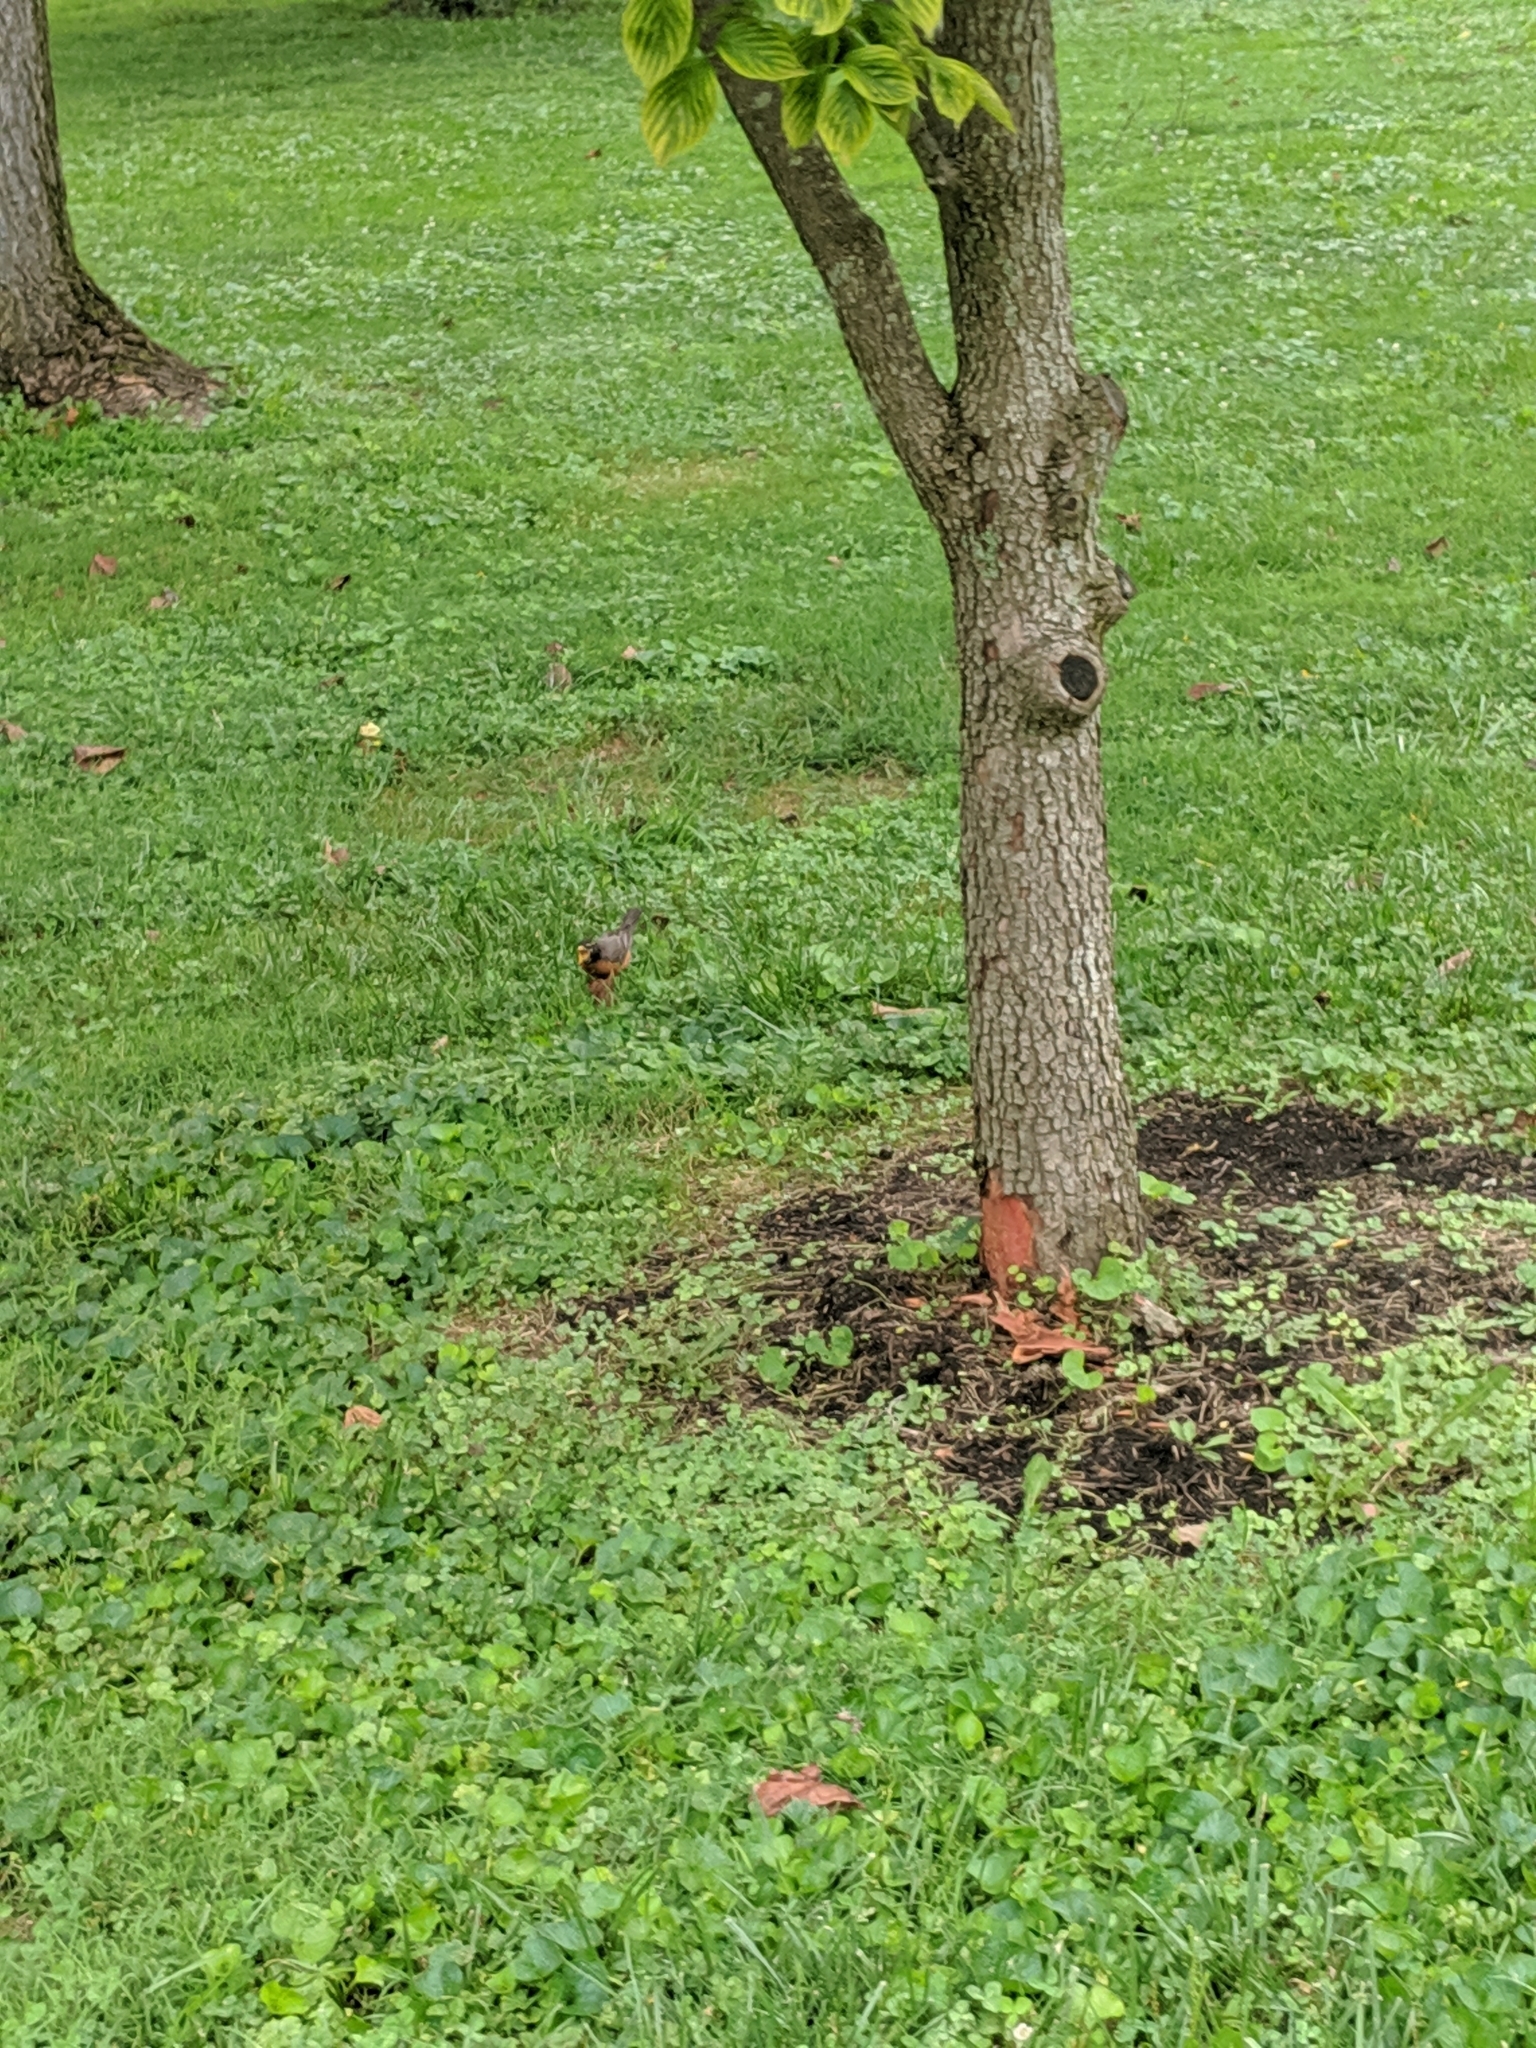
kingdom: Animalia
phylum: Chordata
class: Aves
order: Passeriformes
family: Turdidae
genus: Turdus
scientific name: Turdus migratorius
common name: American robin
